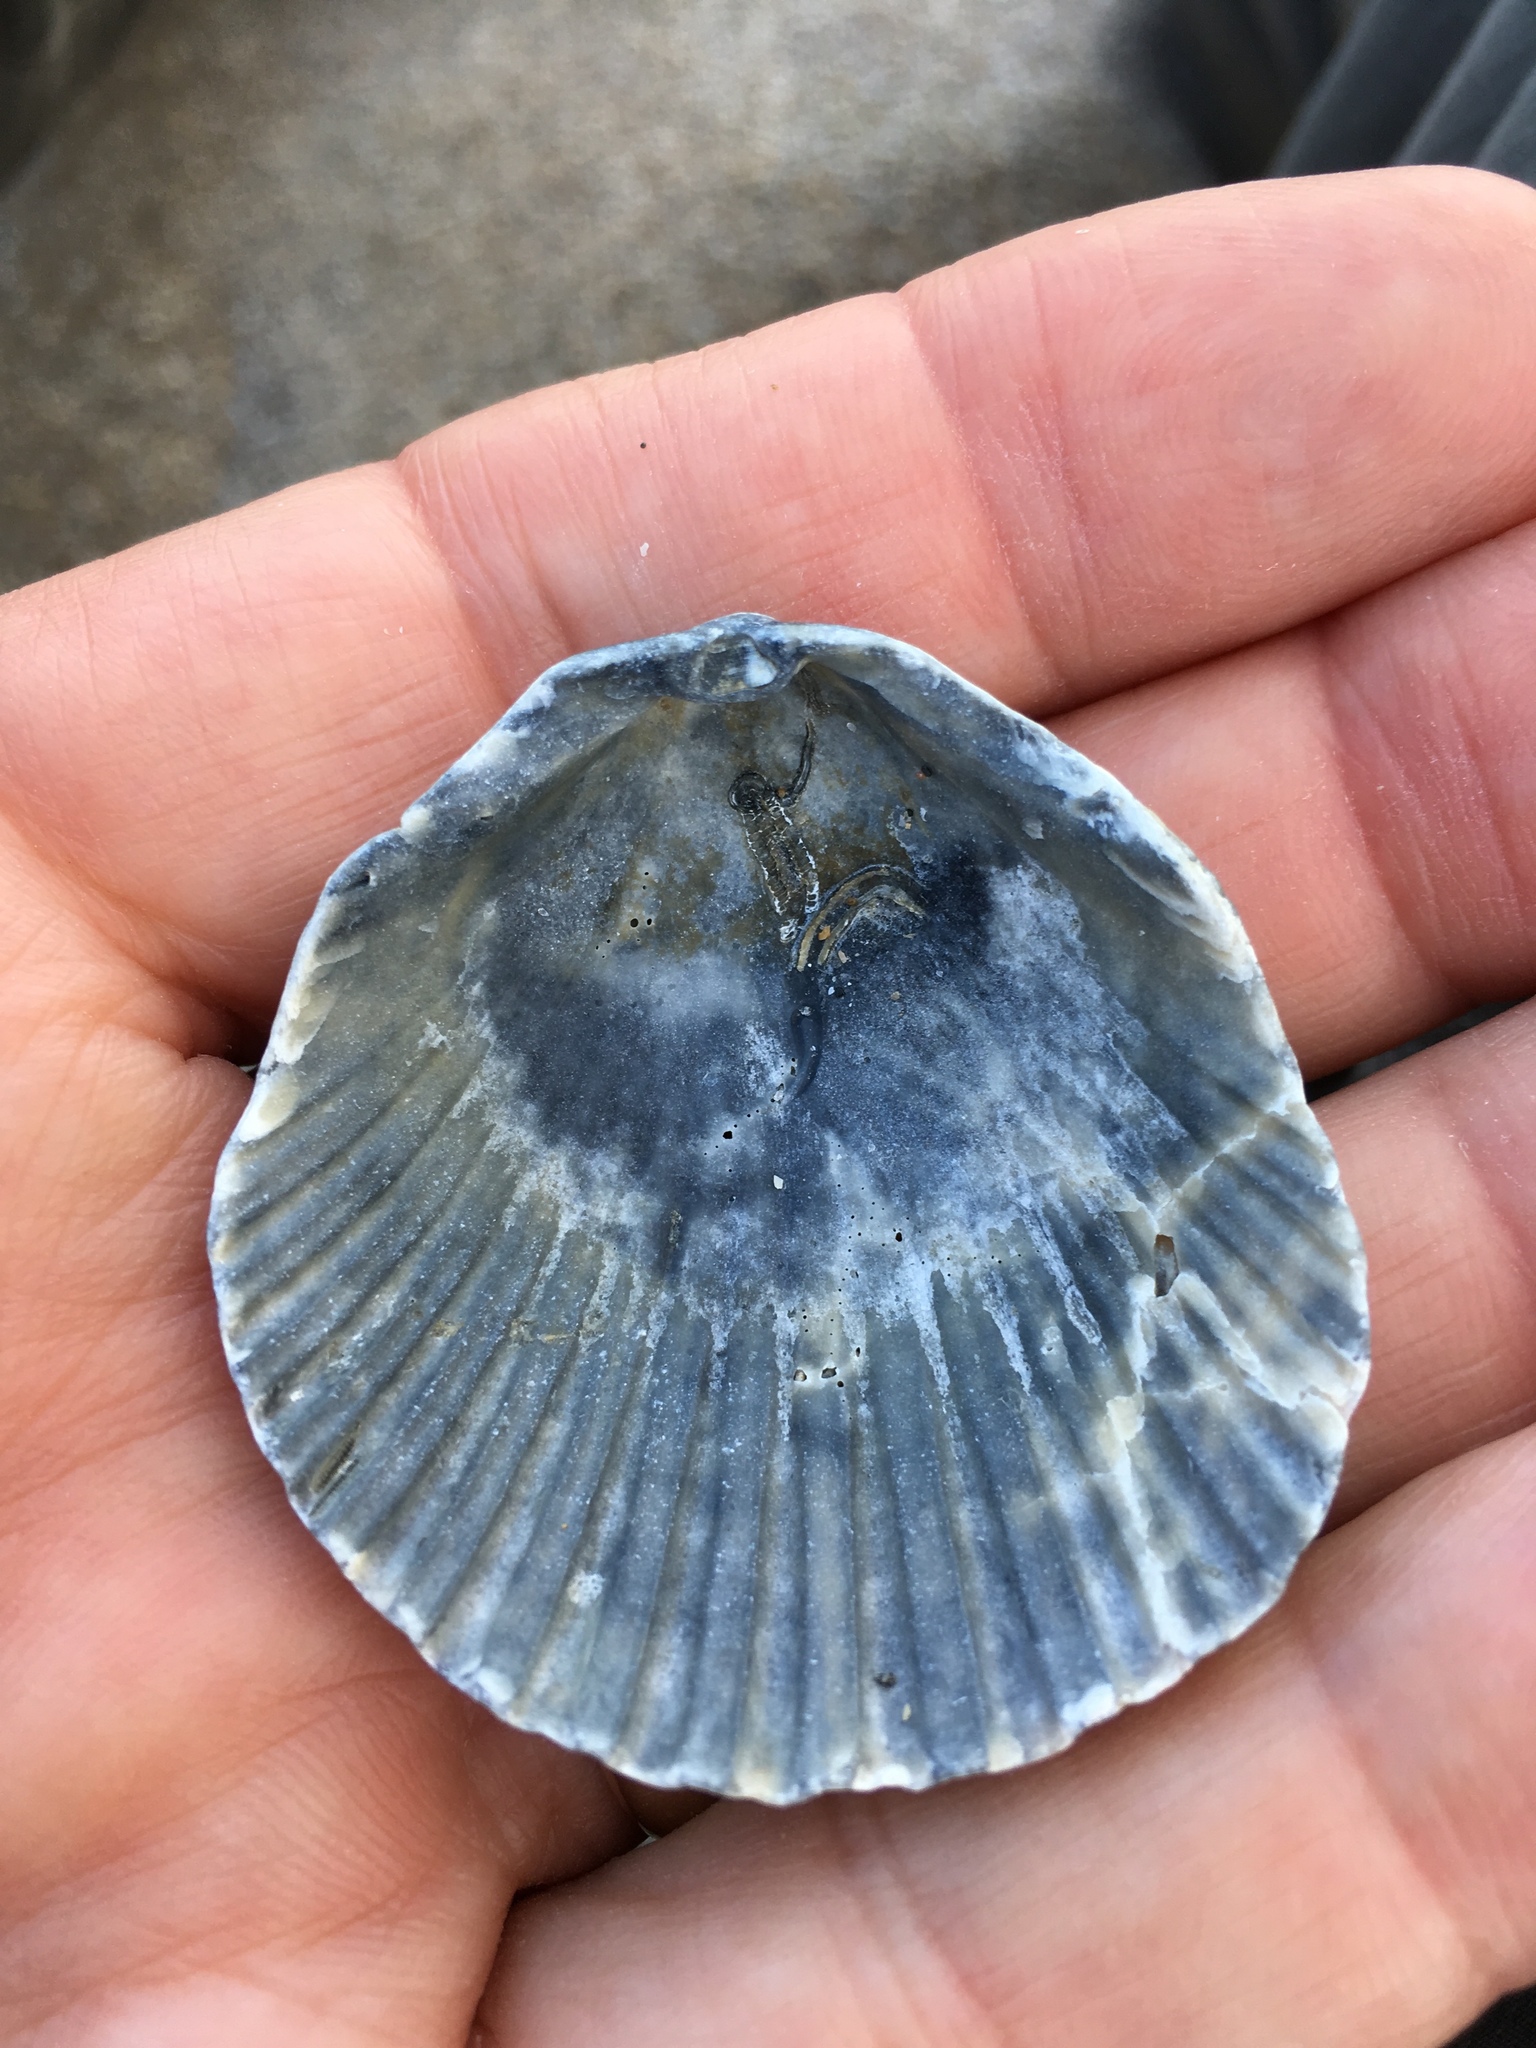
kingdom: Animalia
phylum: Mollusca
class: Bivalvia
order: Pectinida
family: Pectinidae
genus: Argopecten
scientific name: Argopecten gibbus
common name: Atlantic calico scallop
